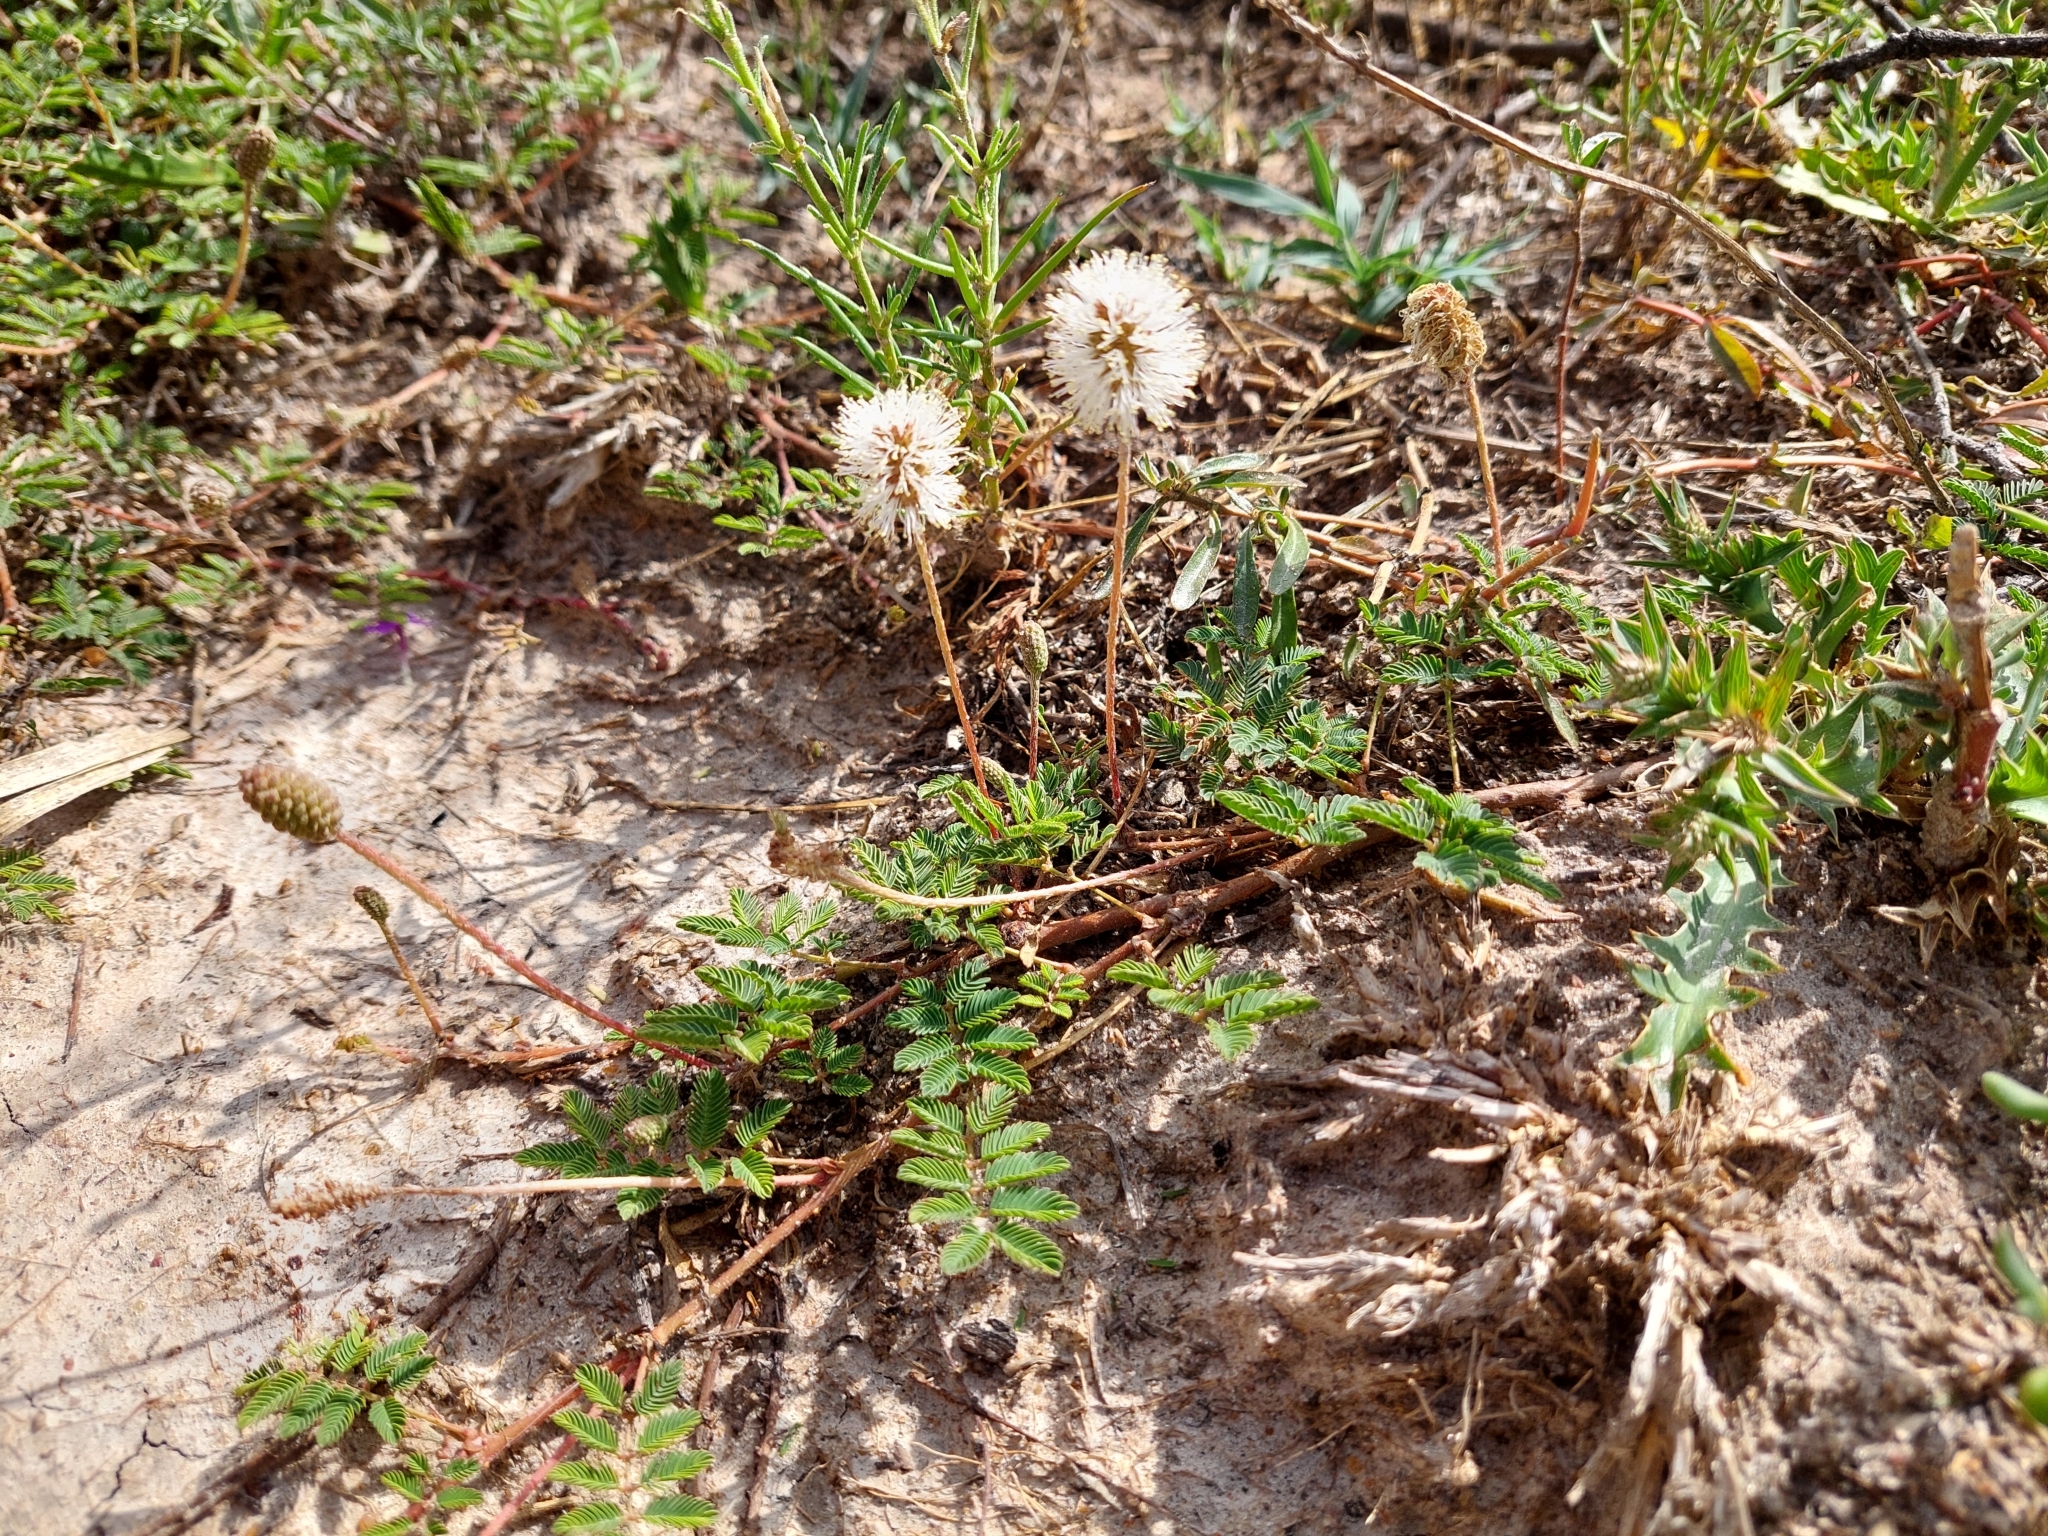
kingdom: Plantae
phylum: Tracheophyta
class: Magnoliopsida
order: Fabales
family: Fabaceae
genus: Mimosa
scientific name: Mimosa strigillosa
